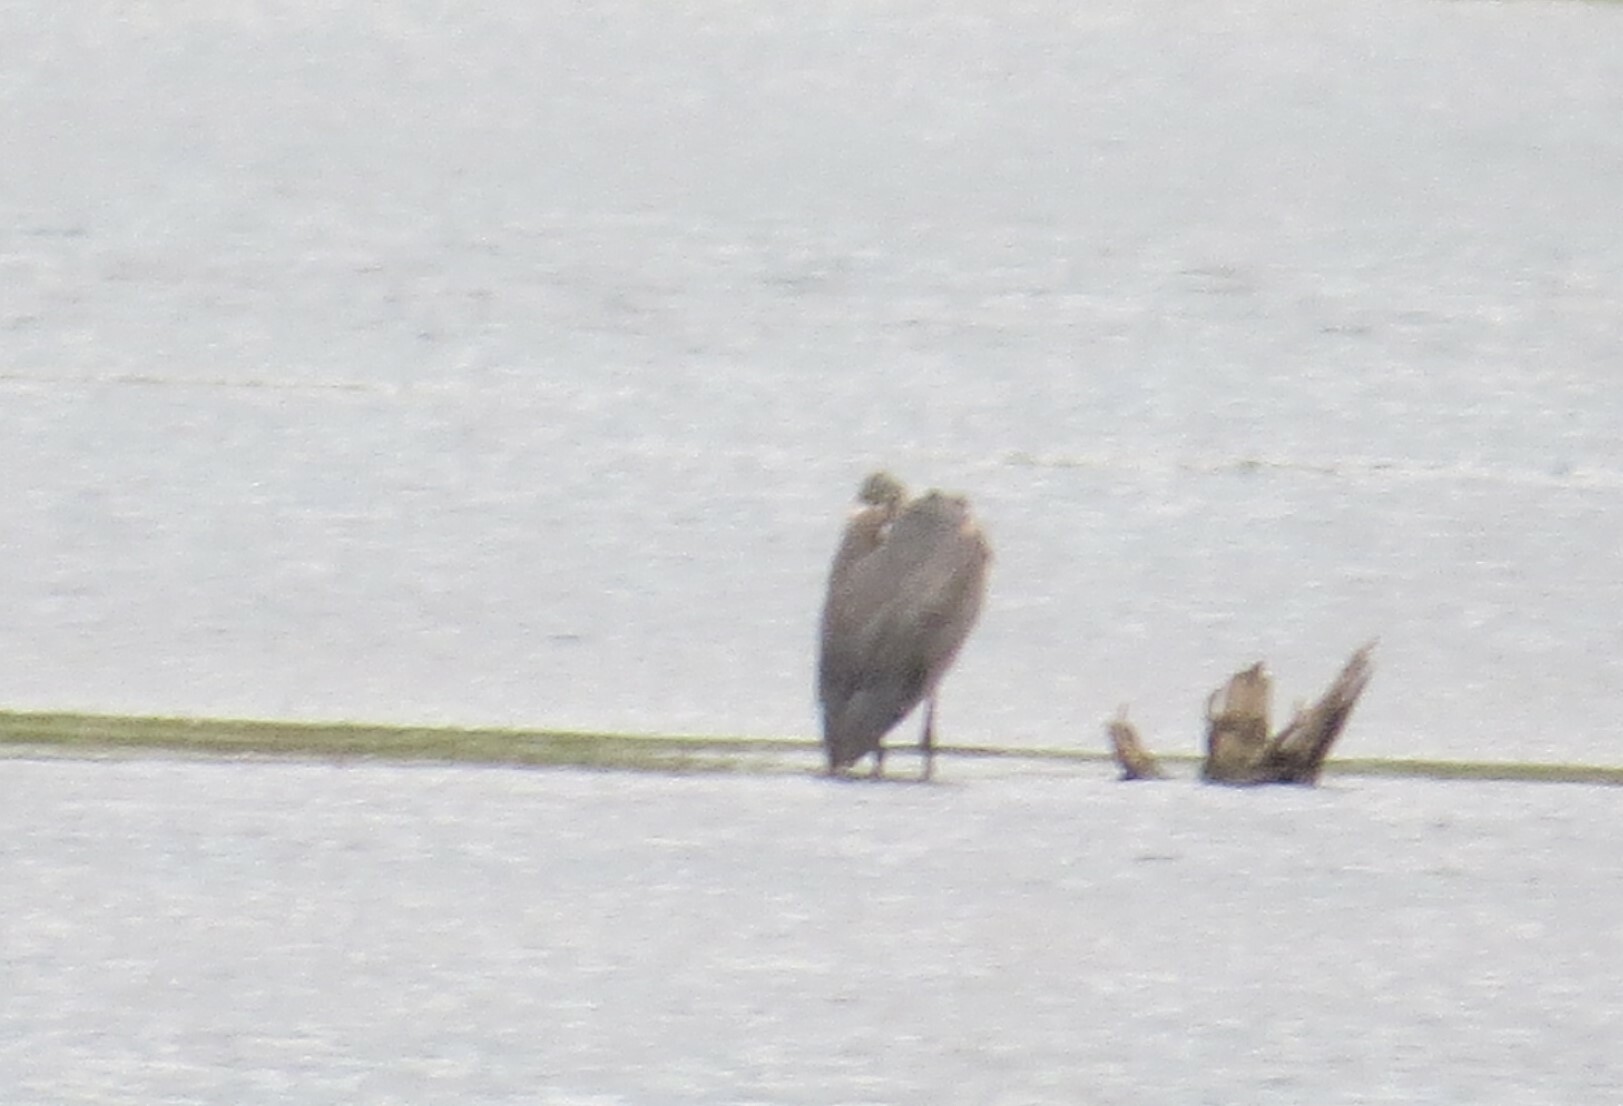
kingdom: Animalia
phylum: Chordata
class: Aves
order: Pelecaniformes
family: Ardeidae
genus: Ardea
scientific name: Ardea herodias
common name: Great blue heron
